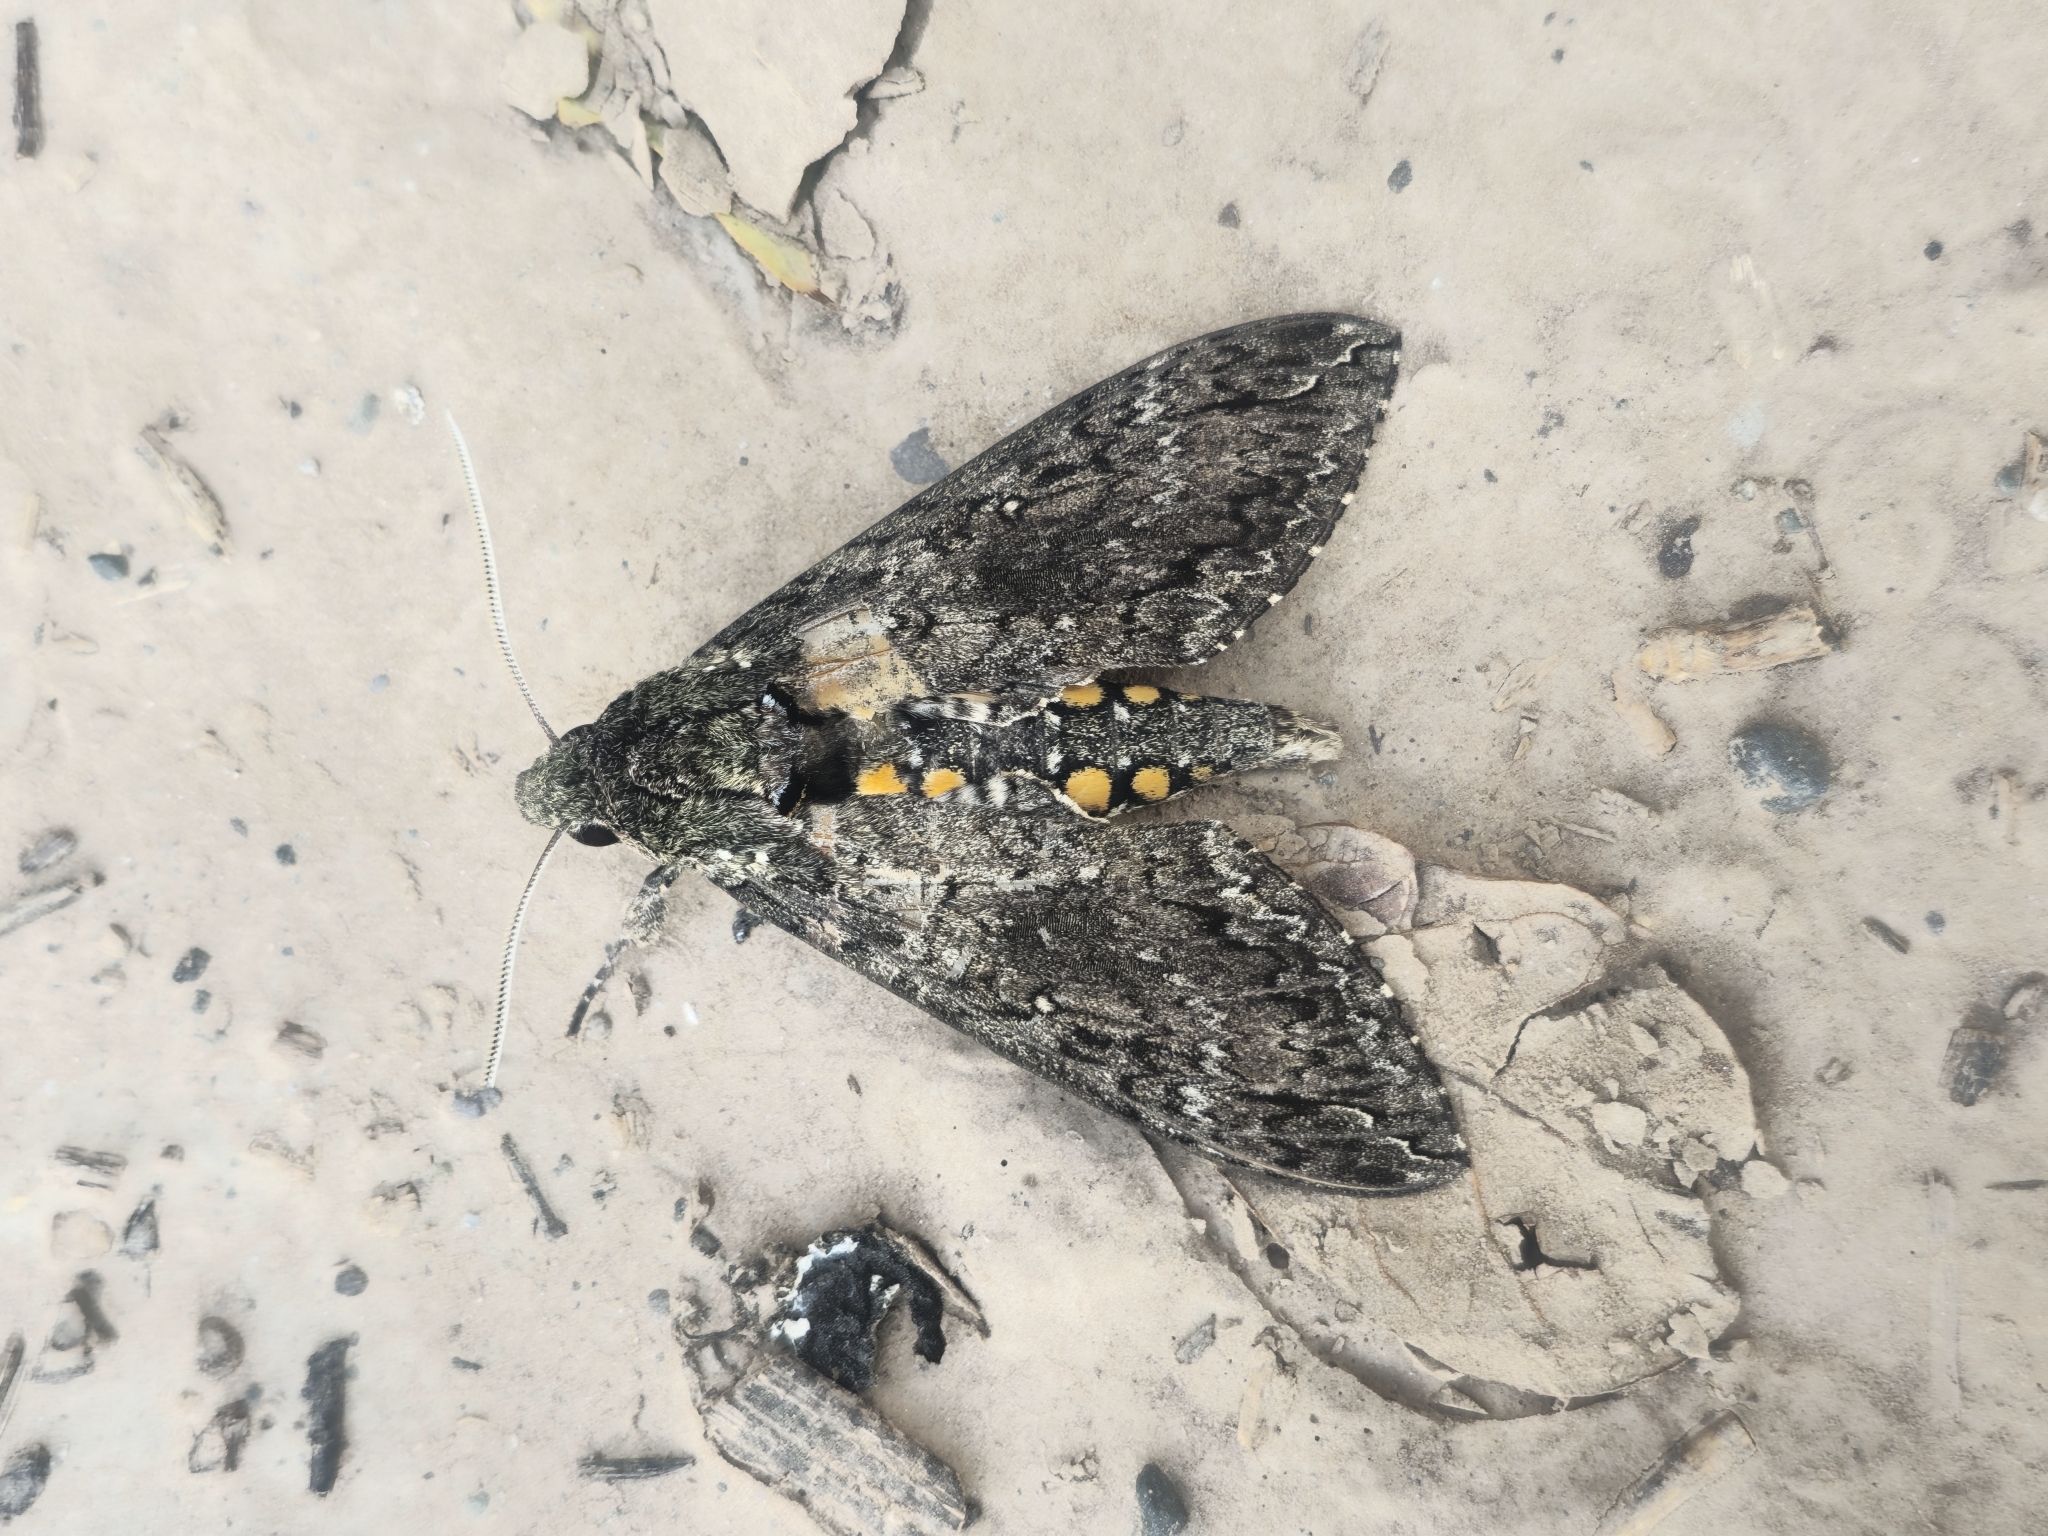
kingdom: Animalia
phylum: Arthropoda
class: Insecta
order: Lepidoptera
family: Sphingidae
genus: Manduca
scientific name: Manduca afflicta
